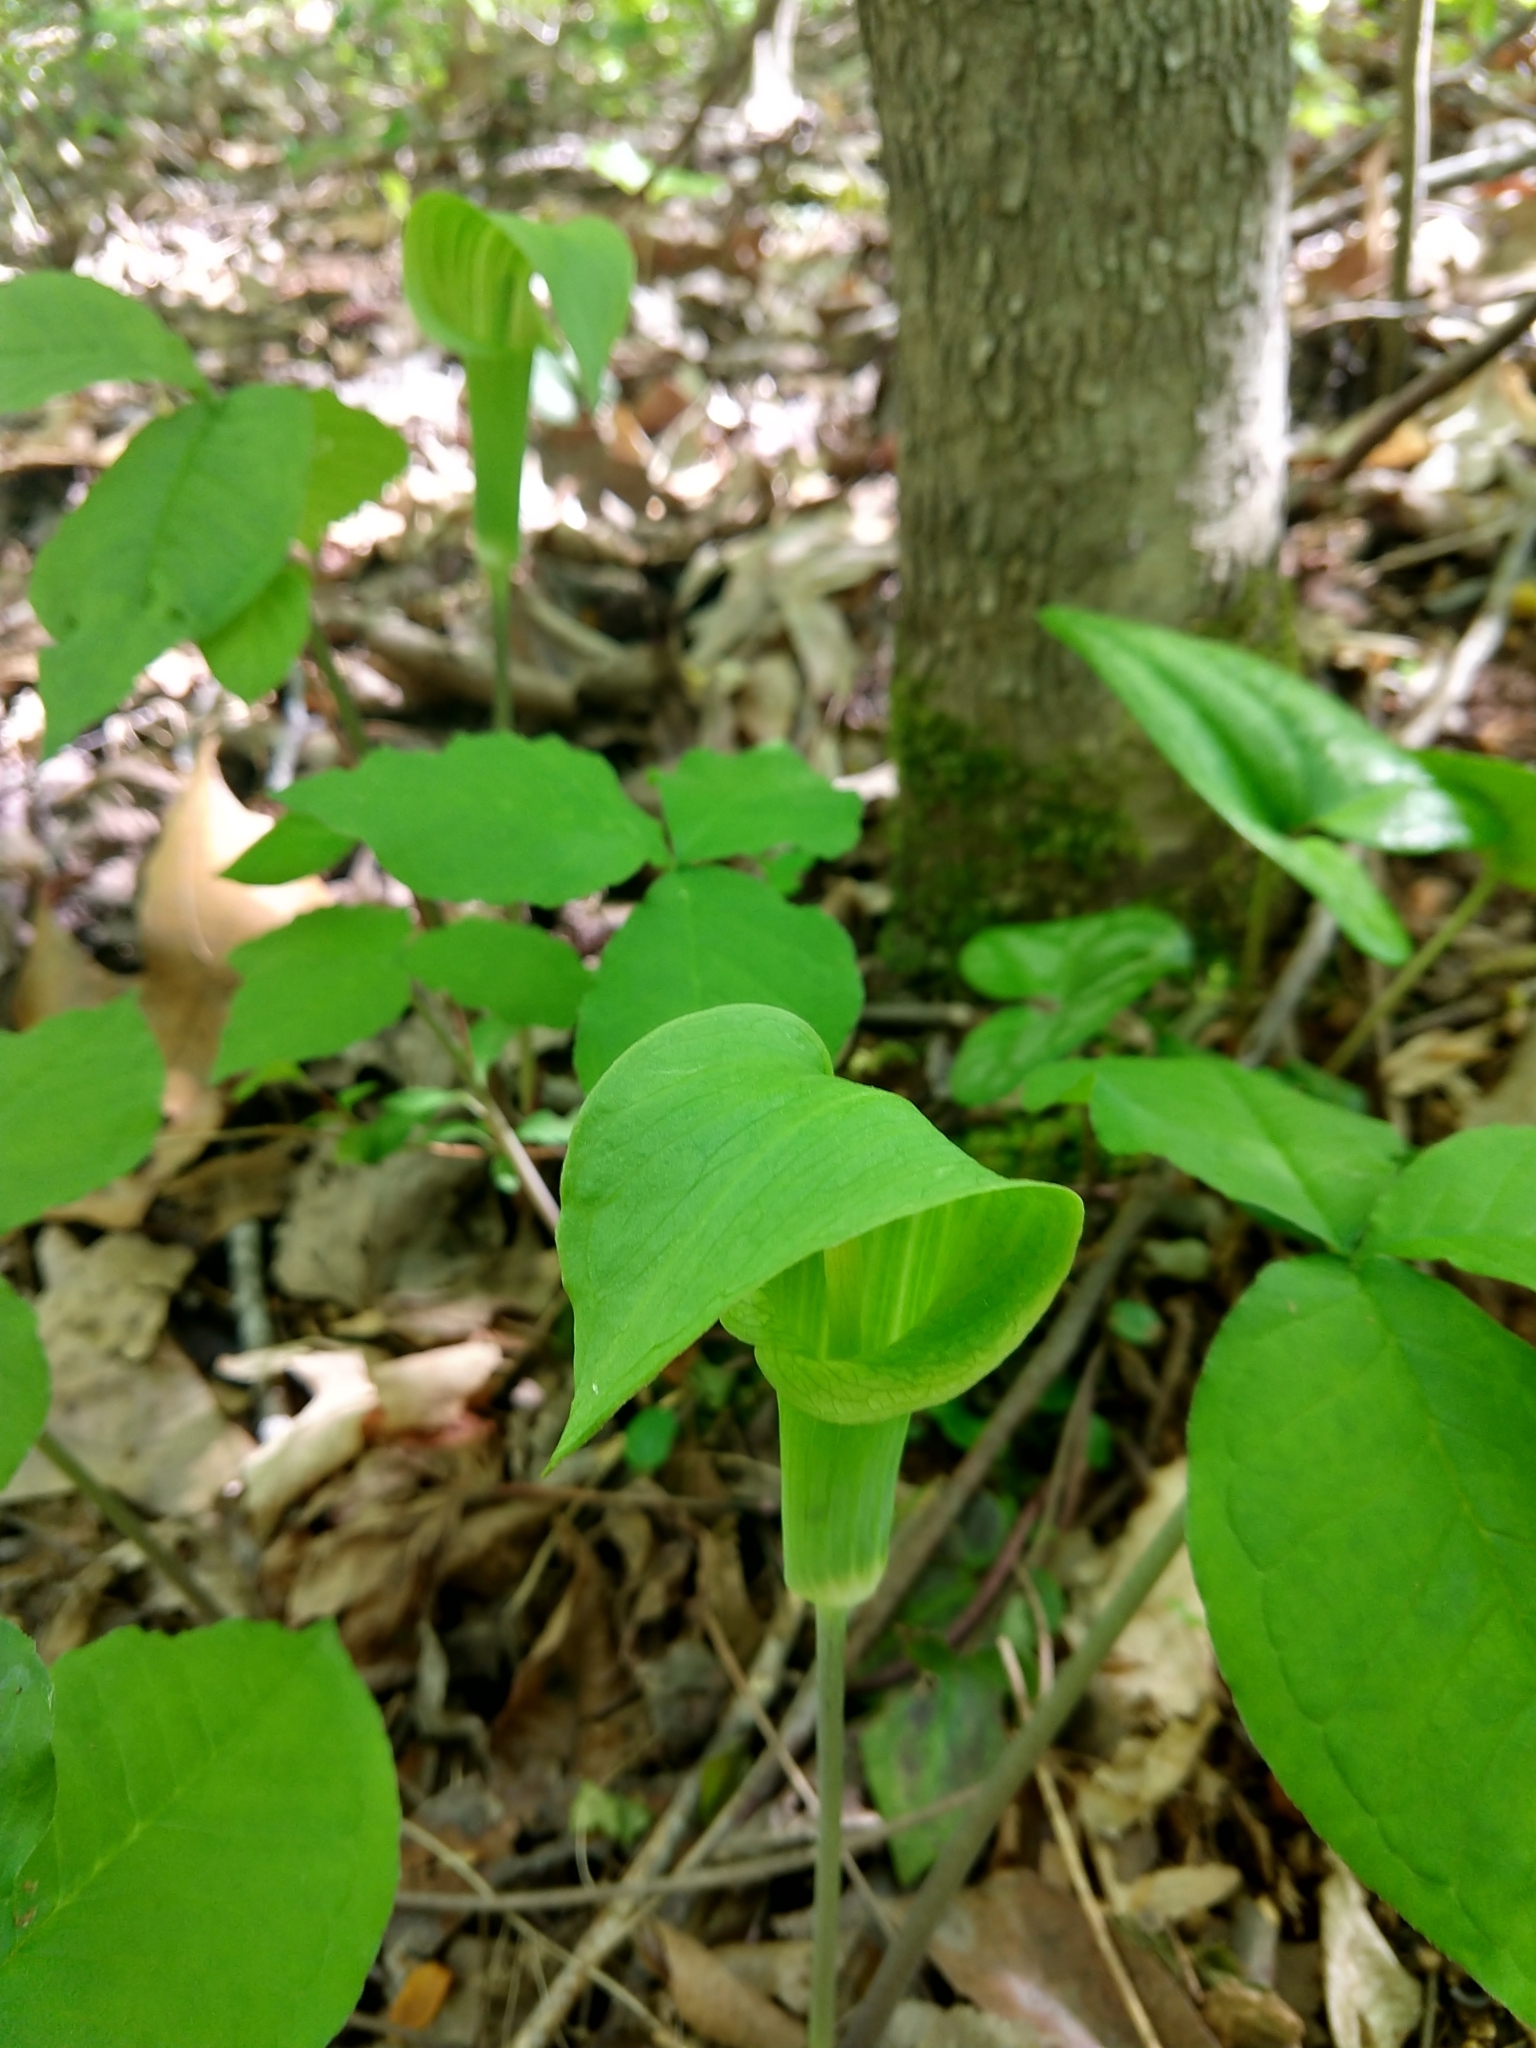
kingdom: Plantae
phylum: Tracheophyta
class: Liliopsida
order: Alismatales
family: Araceae
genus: Arisaema
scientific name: Arisaema triphyllum
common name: Jack-in-the-pulpit
